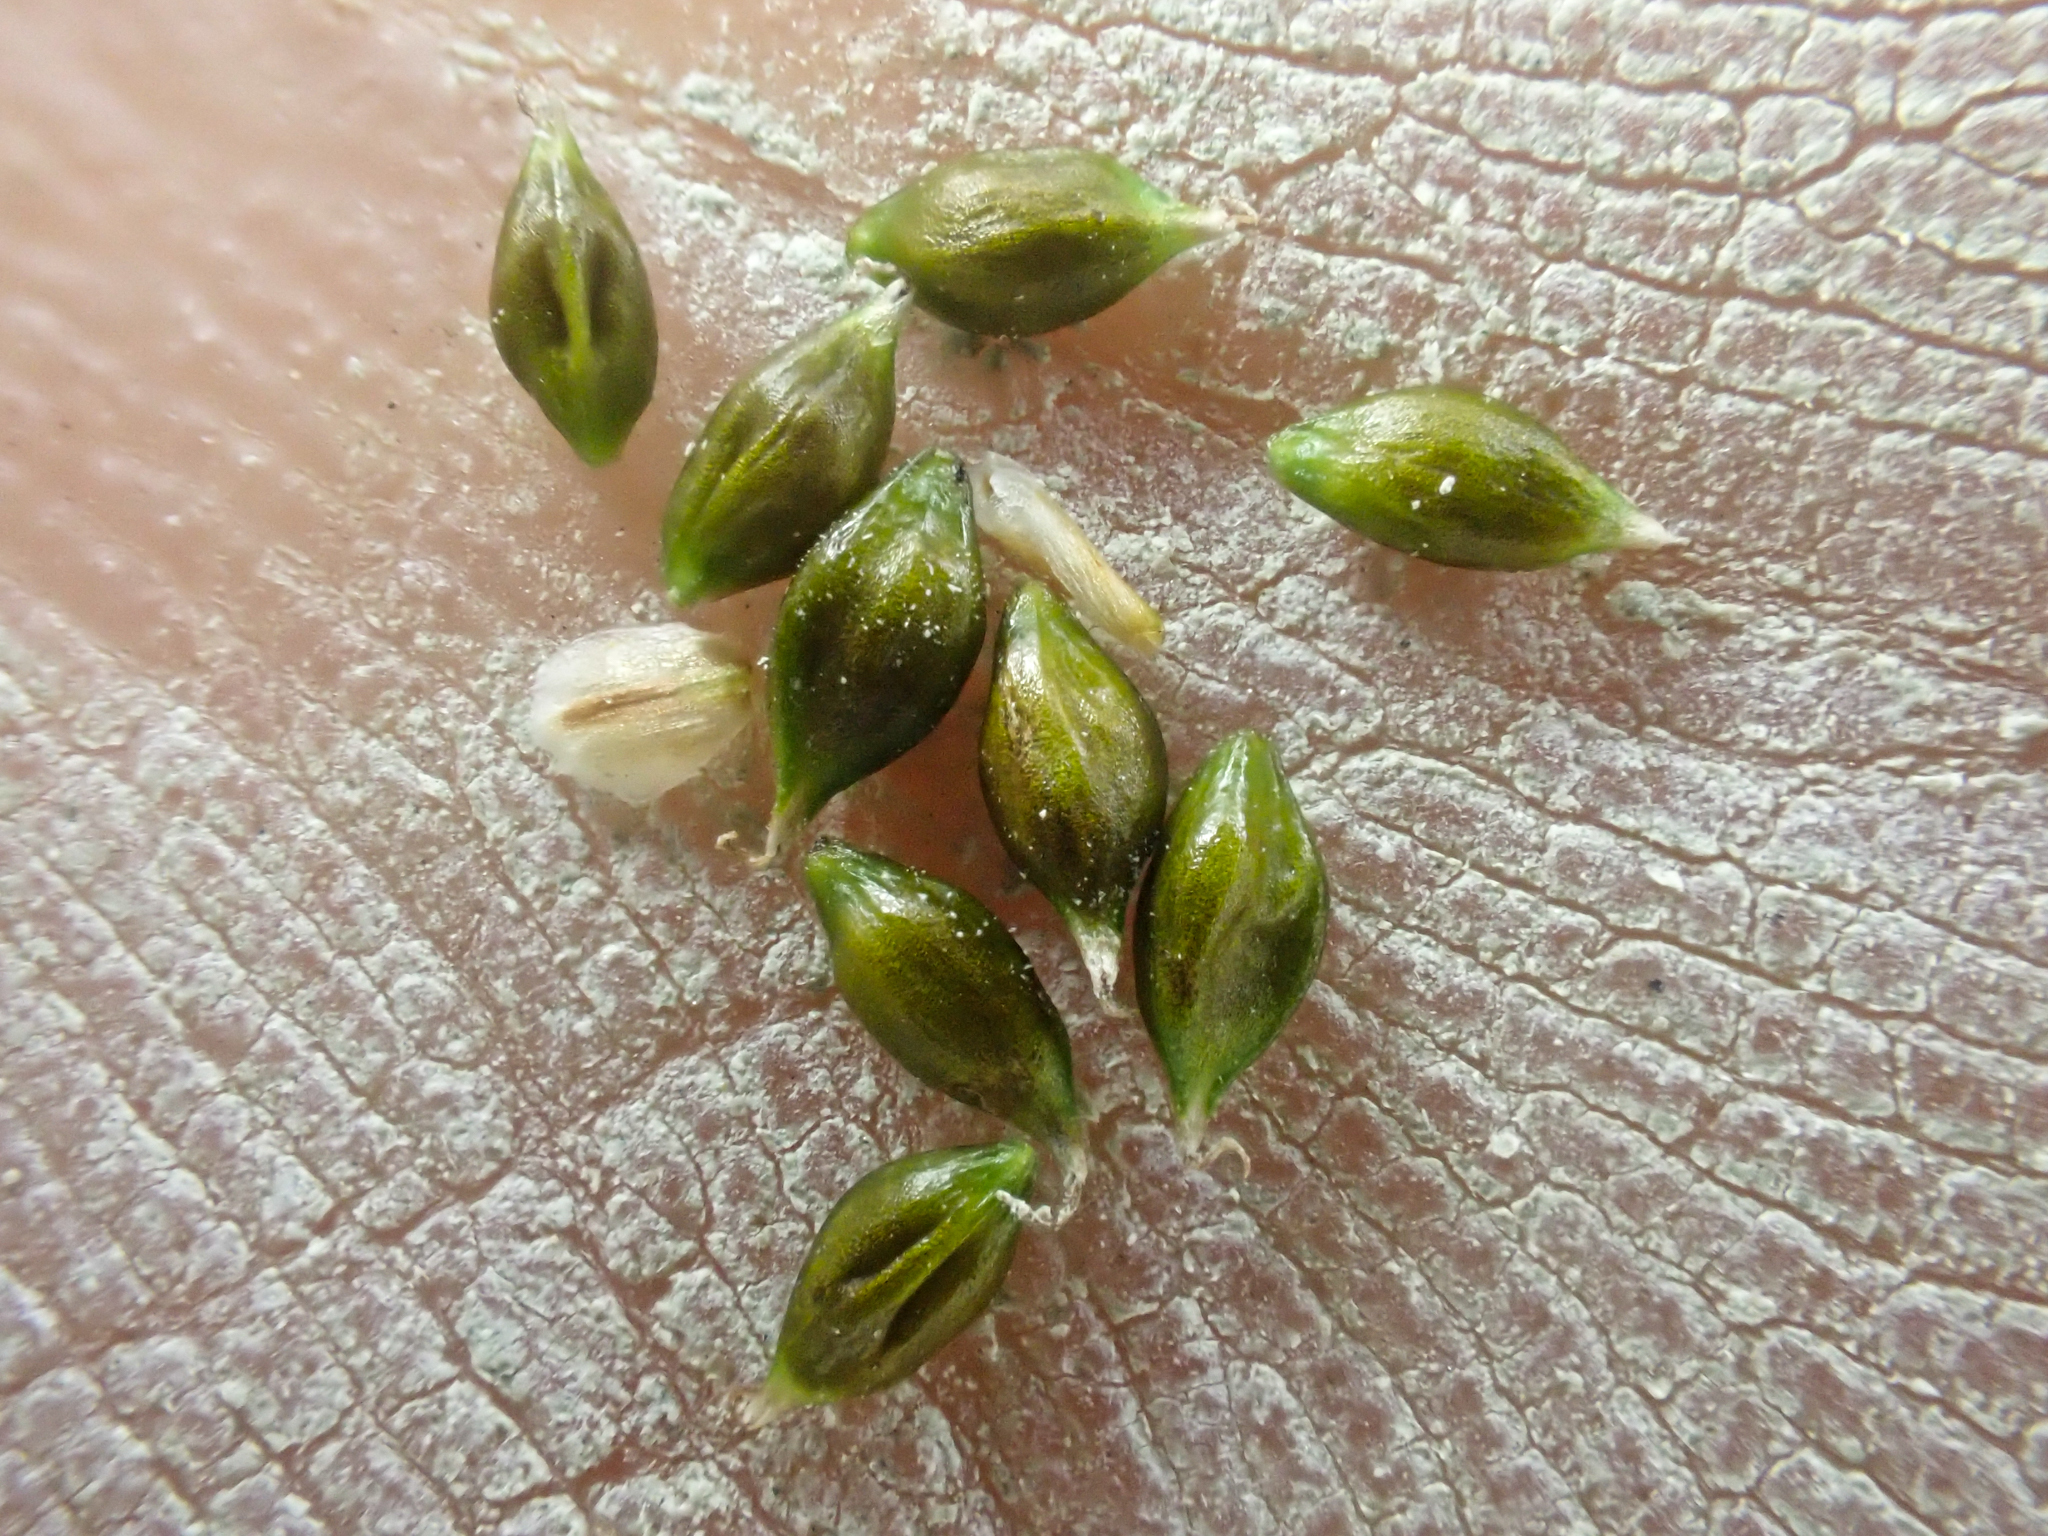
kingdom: Plantae
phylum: Tracheophyta
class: Liliopsida
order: Poales
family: Cyperaceae
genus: Carex
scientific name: Carex capillaris
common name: Hair sedge
